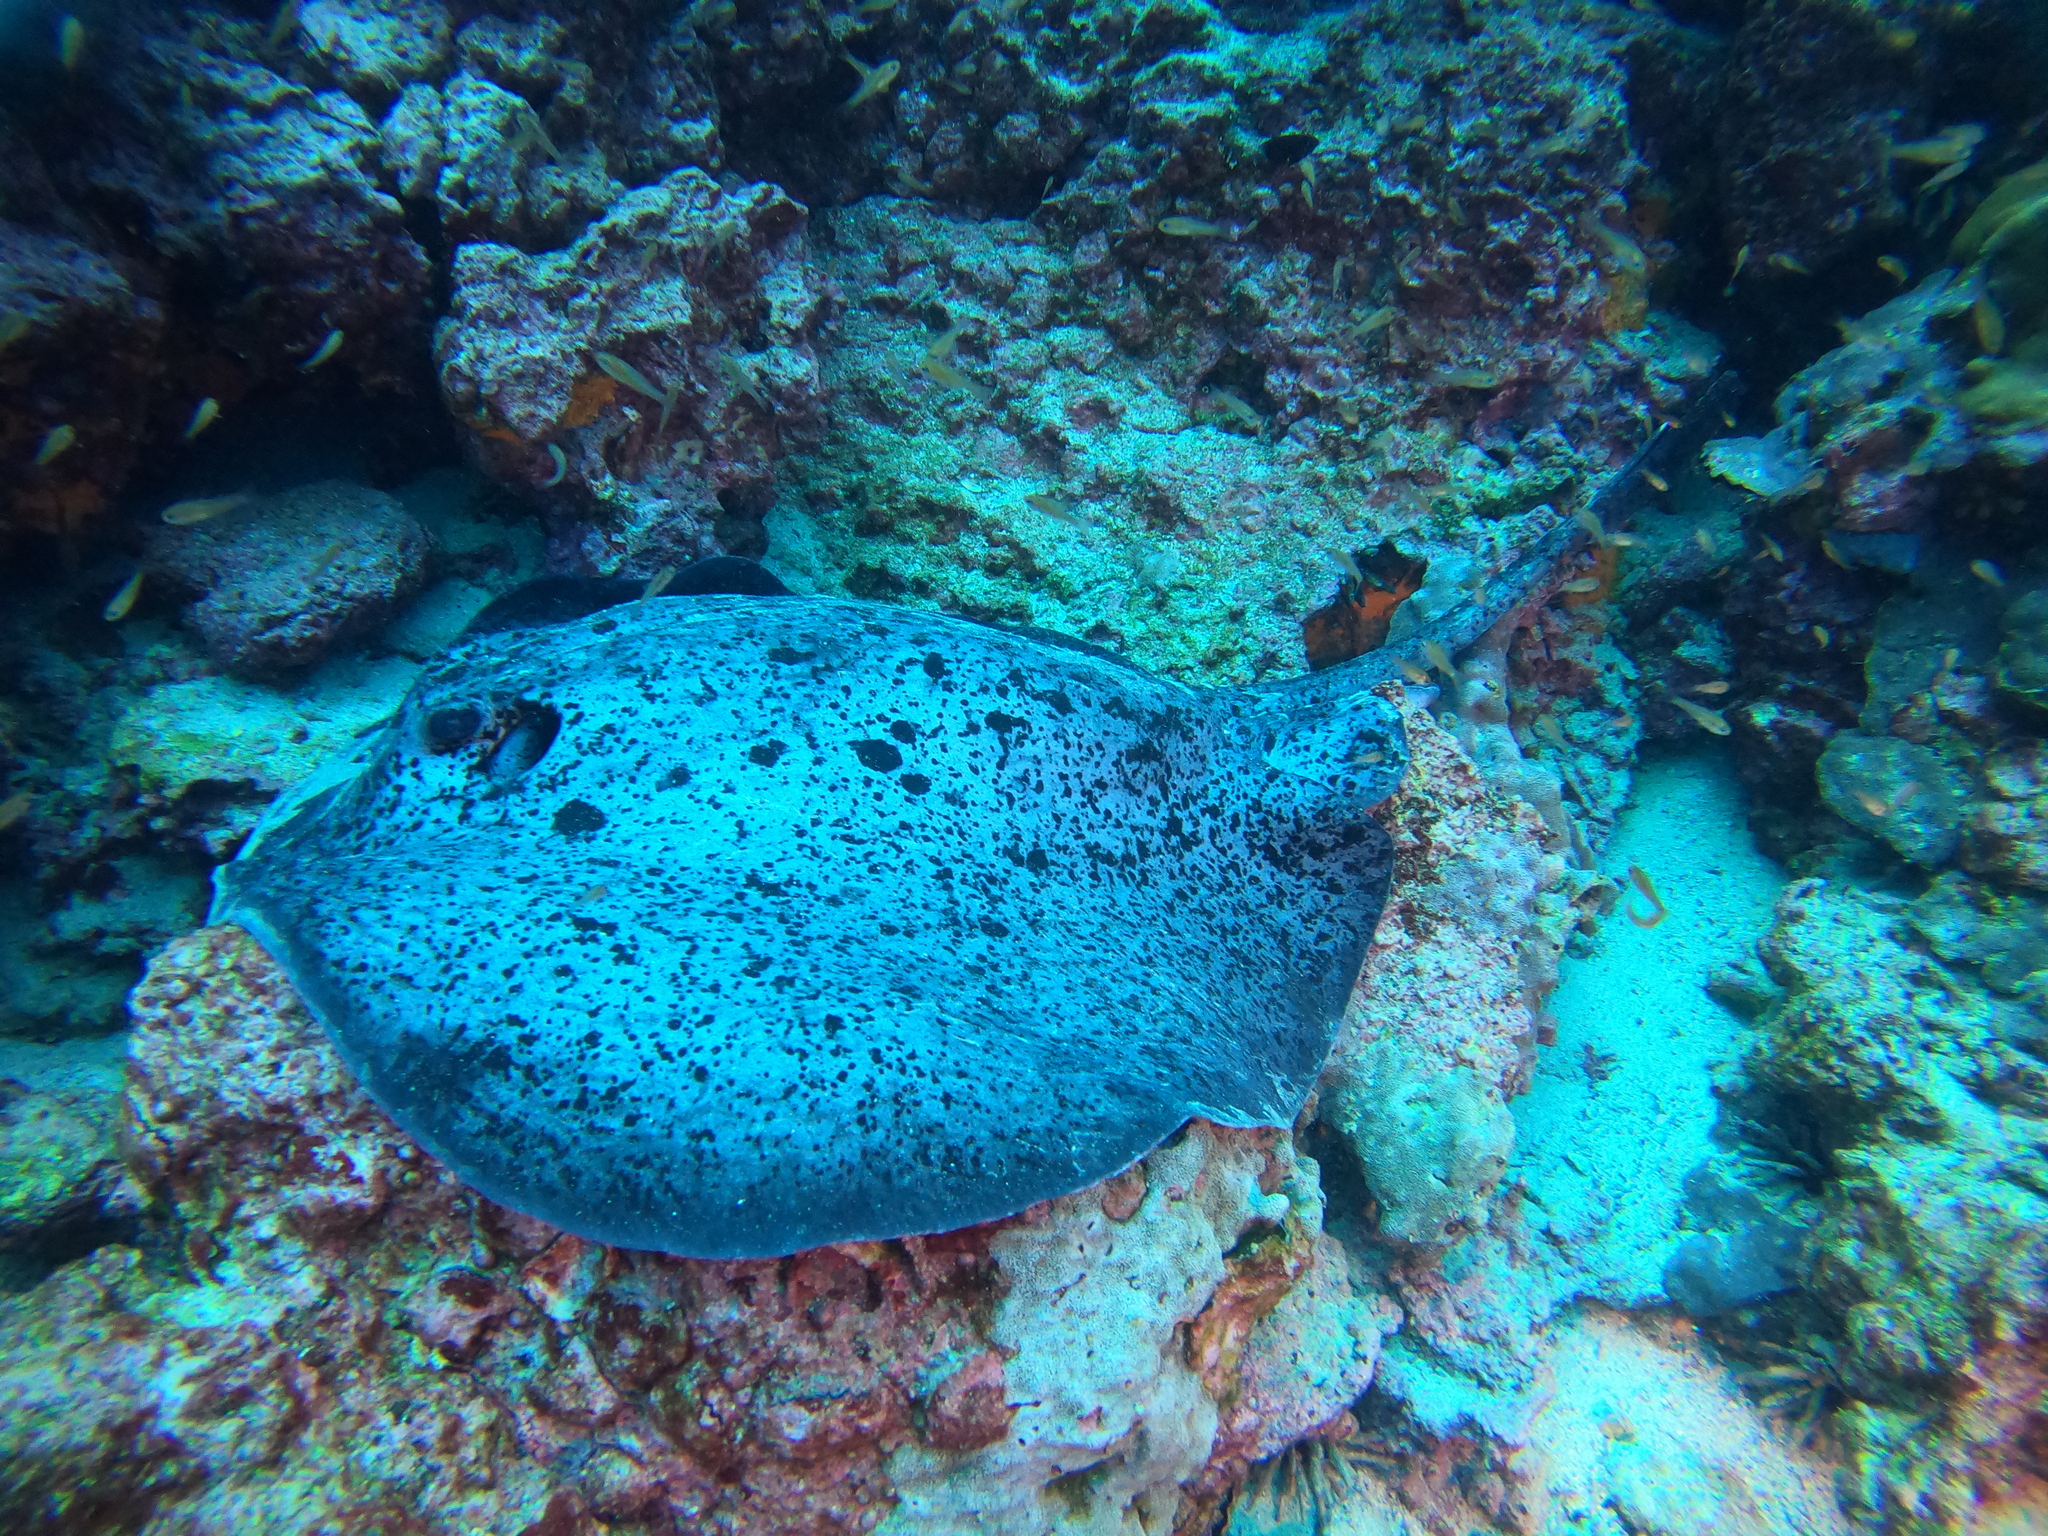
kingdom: Animalia
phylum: Chordata
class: Elasmobranchii
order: Myliobatiformes
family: Dasyatidae
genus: Taeniurops
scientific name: Taeniurops meyeni
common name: Black-blotched stingray
